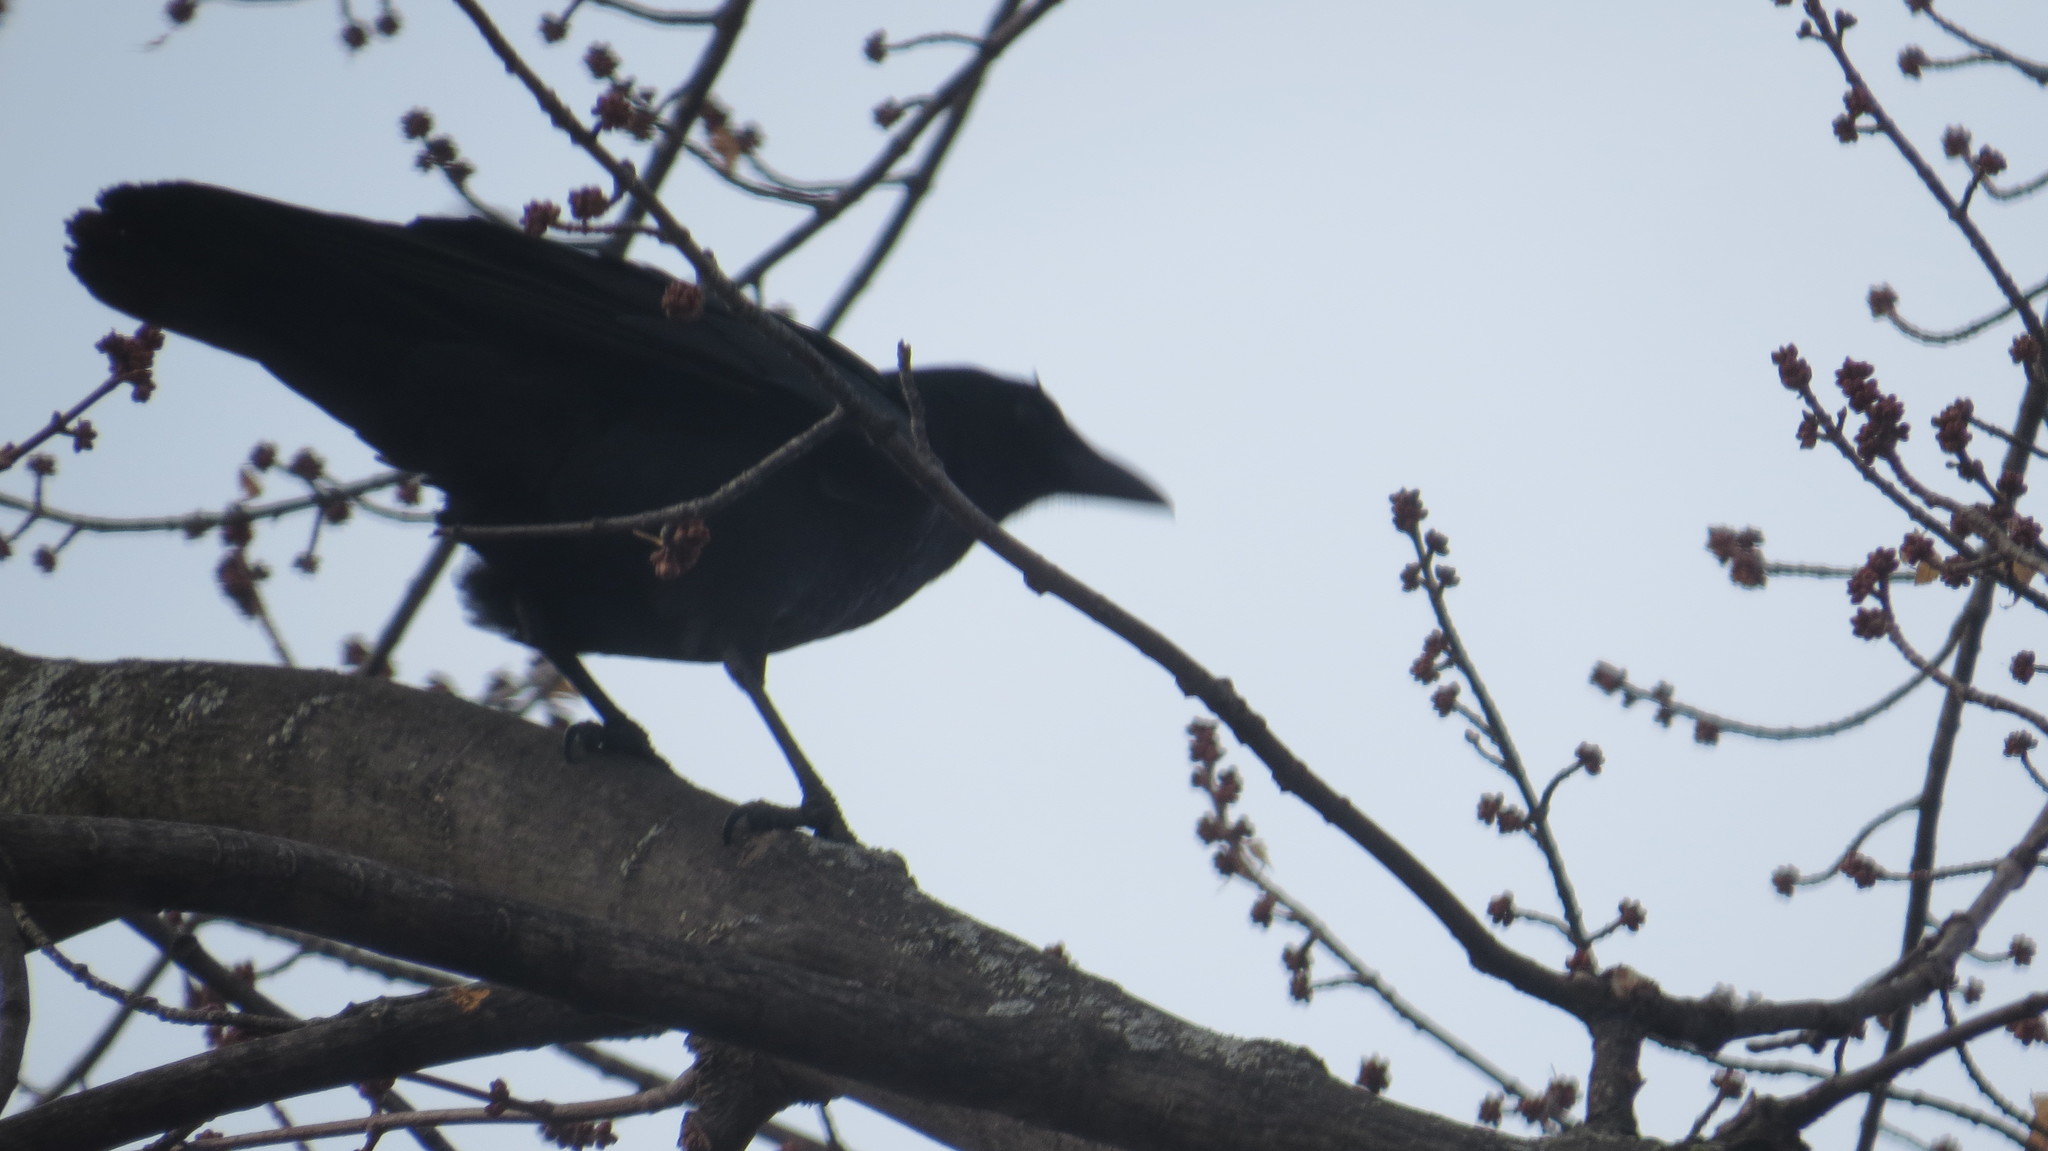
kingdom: Animalia
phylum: Chordata
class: Aves
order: Passeriformes
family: Corvidae
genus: Corvus
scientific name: Corvus brachyrhynchos
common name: American crow
